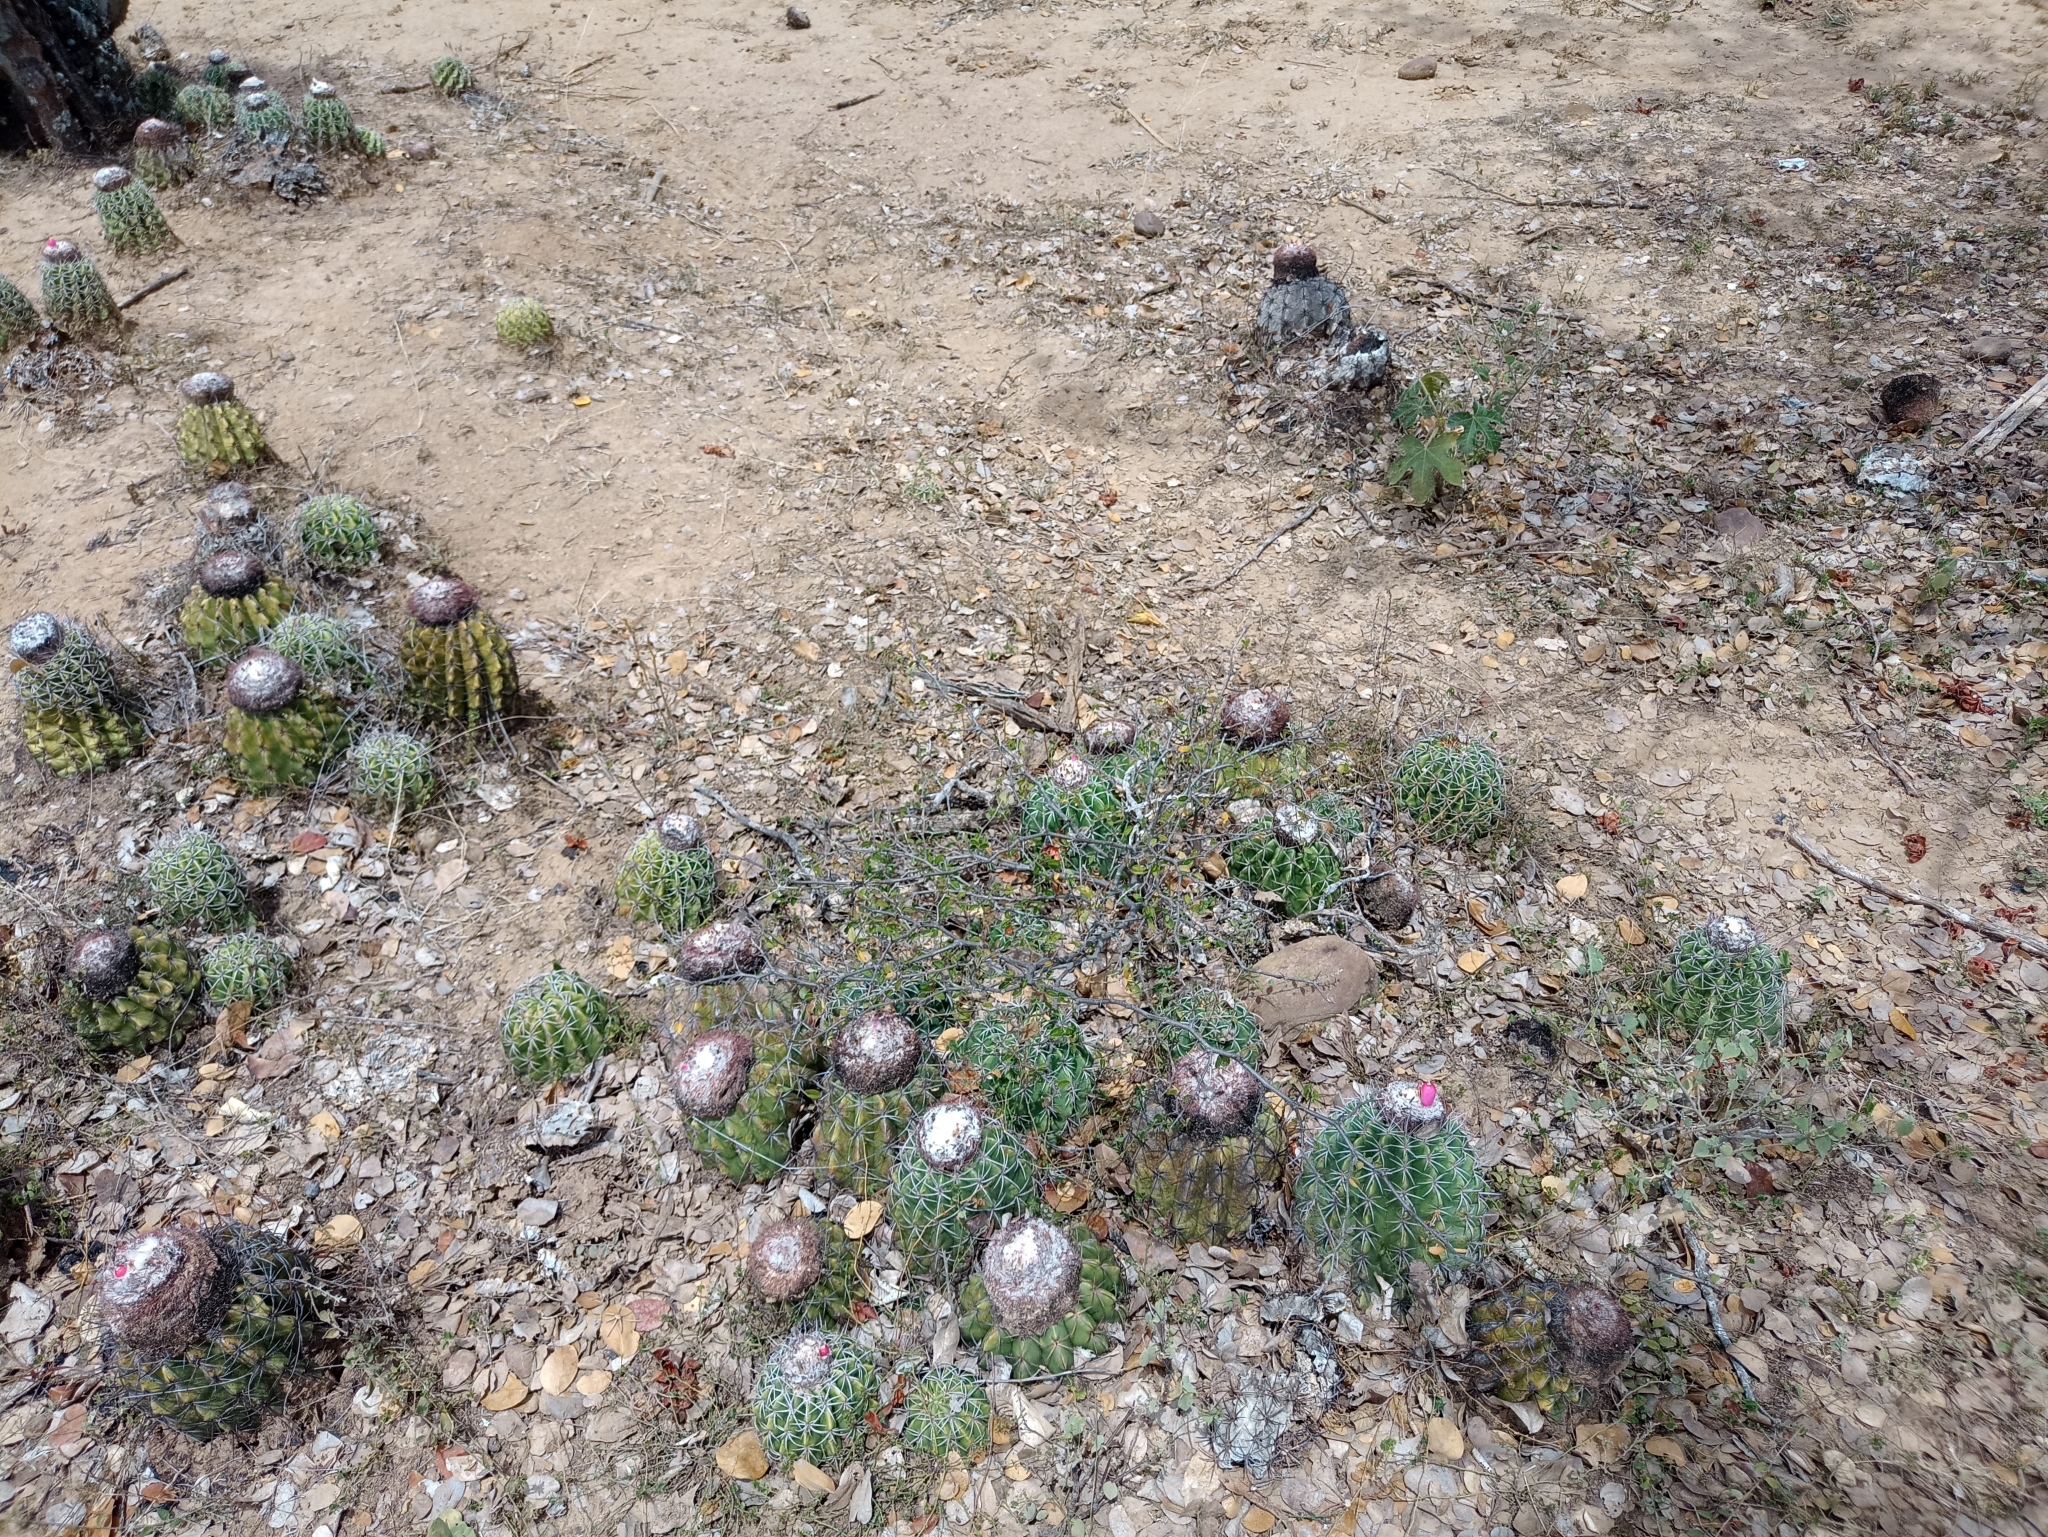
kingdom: Plantae
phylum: Tracheophyta
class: Magnoliopsida
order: Caryophyllales
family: Cactaceae
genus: Melocactus
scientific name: Melocactus curvispinus
